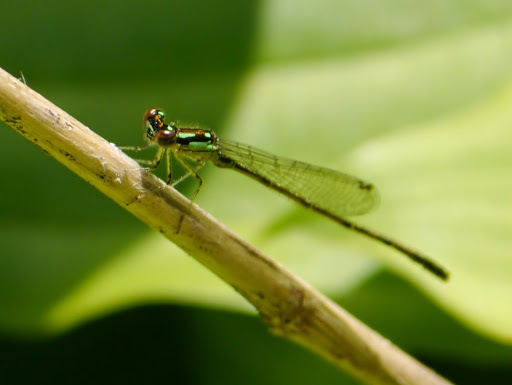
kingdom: Animalia
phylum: Arthropoda
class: Insecta
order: Odonata
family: Coenagrionidae
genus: Ischnura
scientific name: Ischnura posita
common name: Fragile forktail
